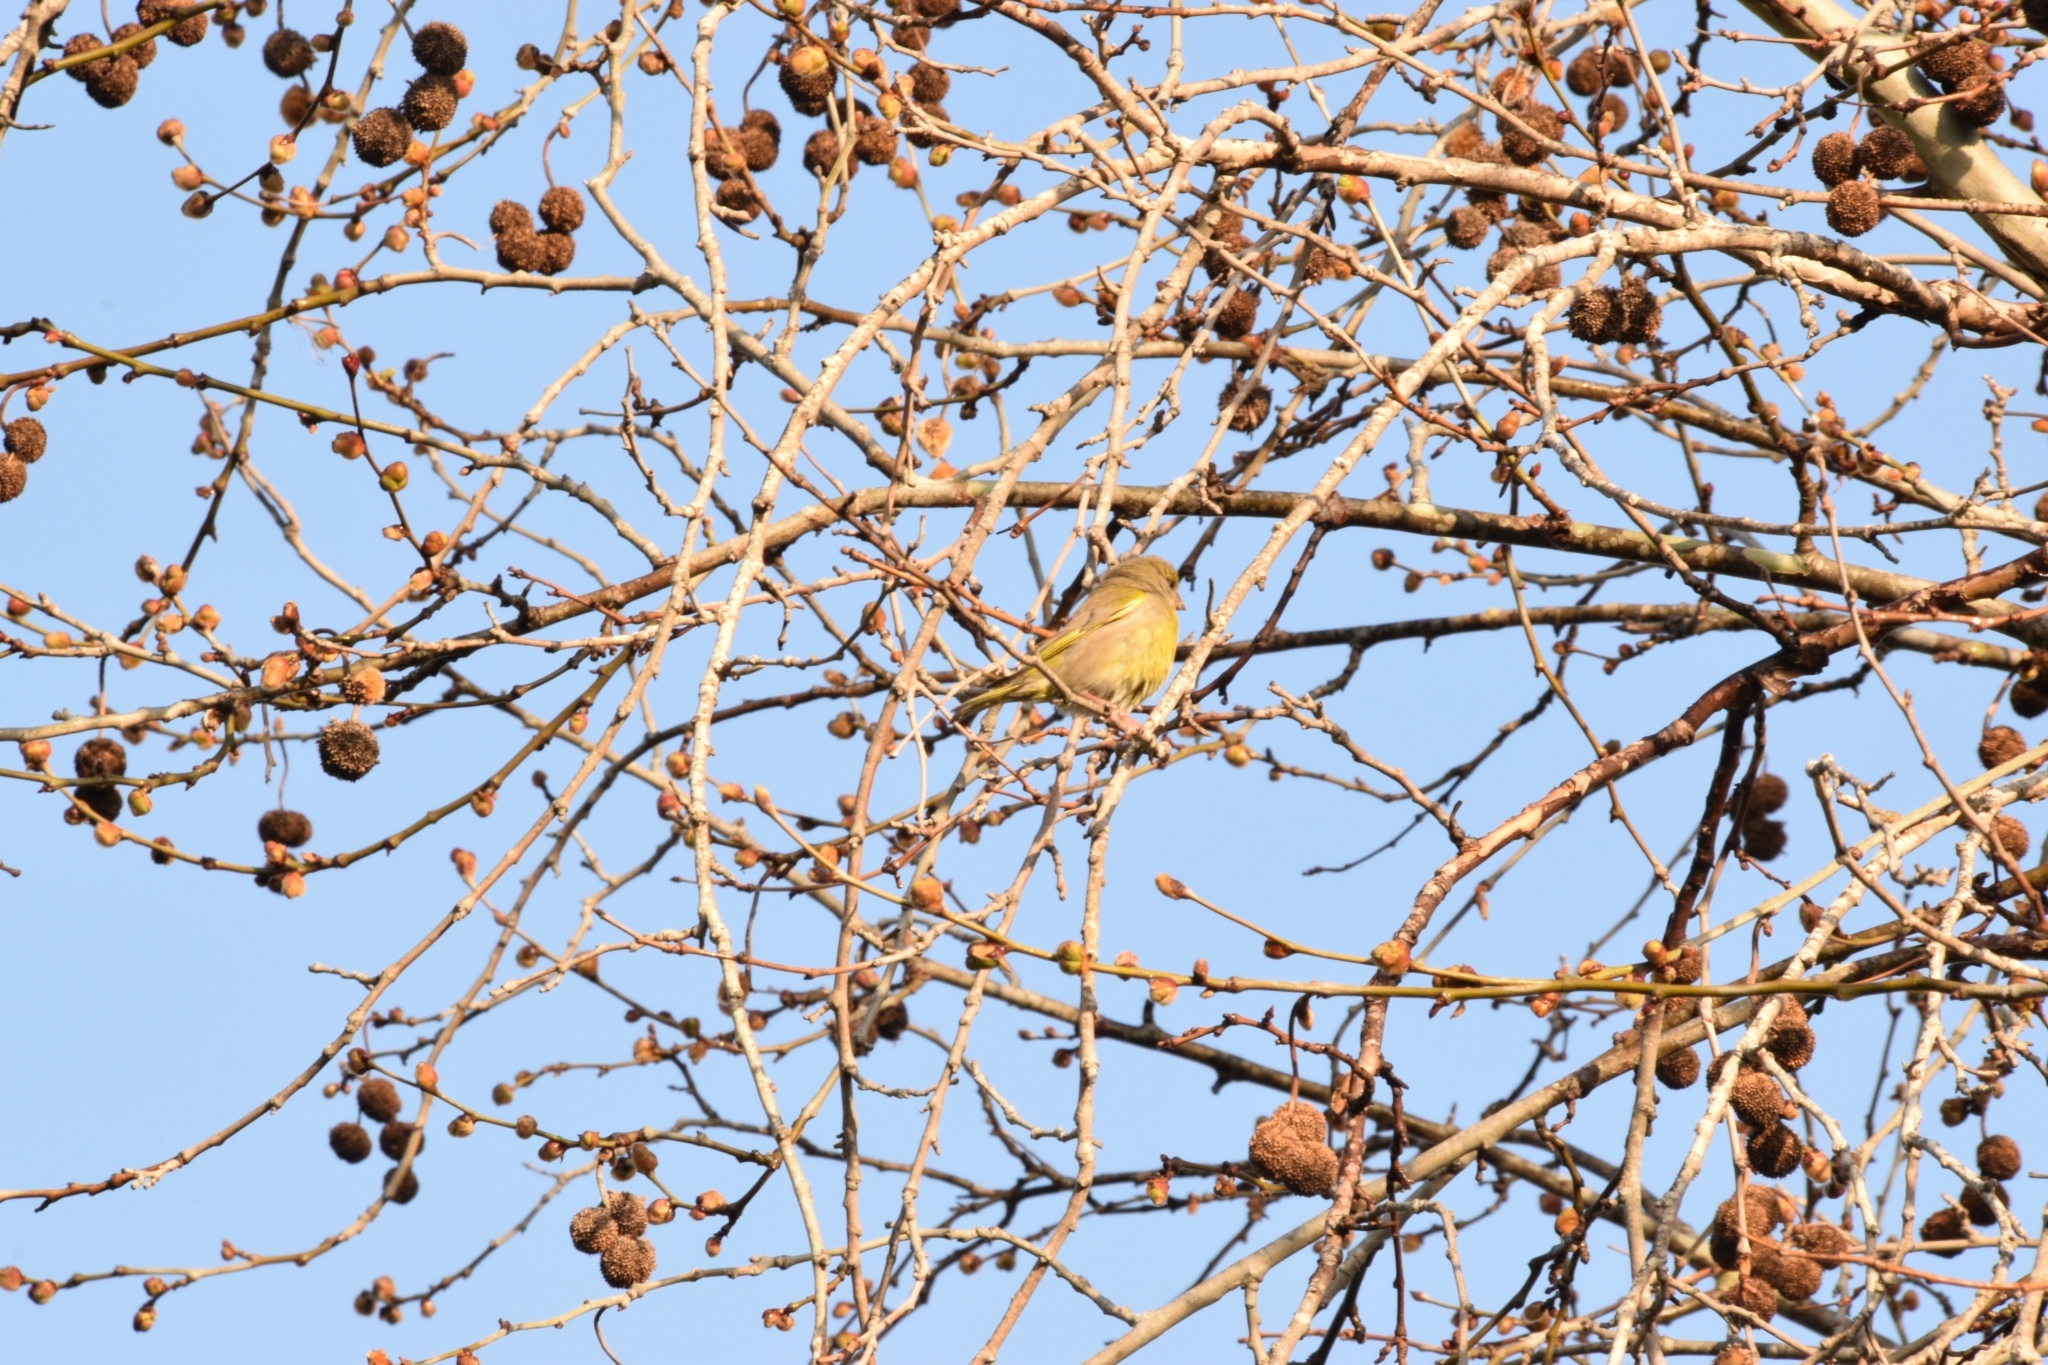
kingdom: Plantae
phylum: Tracheophyta
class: Liliopsida
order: Poales
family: Poaceae
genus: Chloris
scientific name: Chloris chloris
